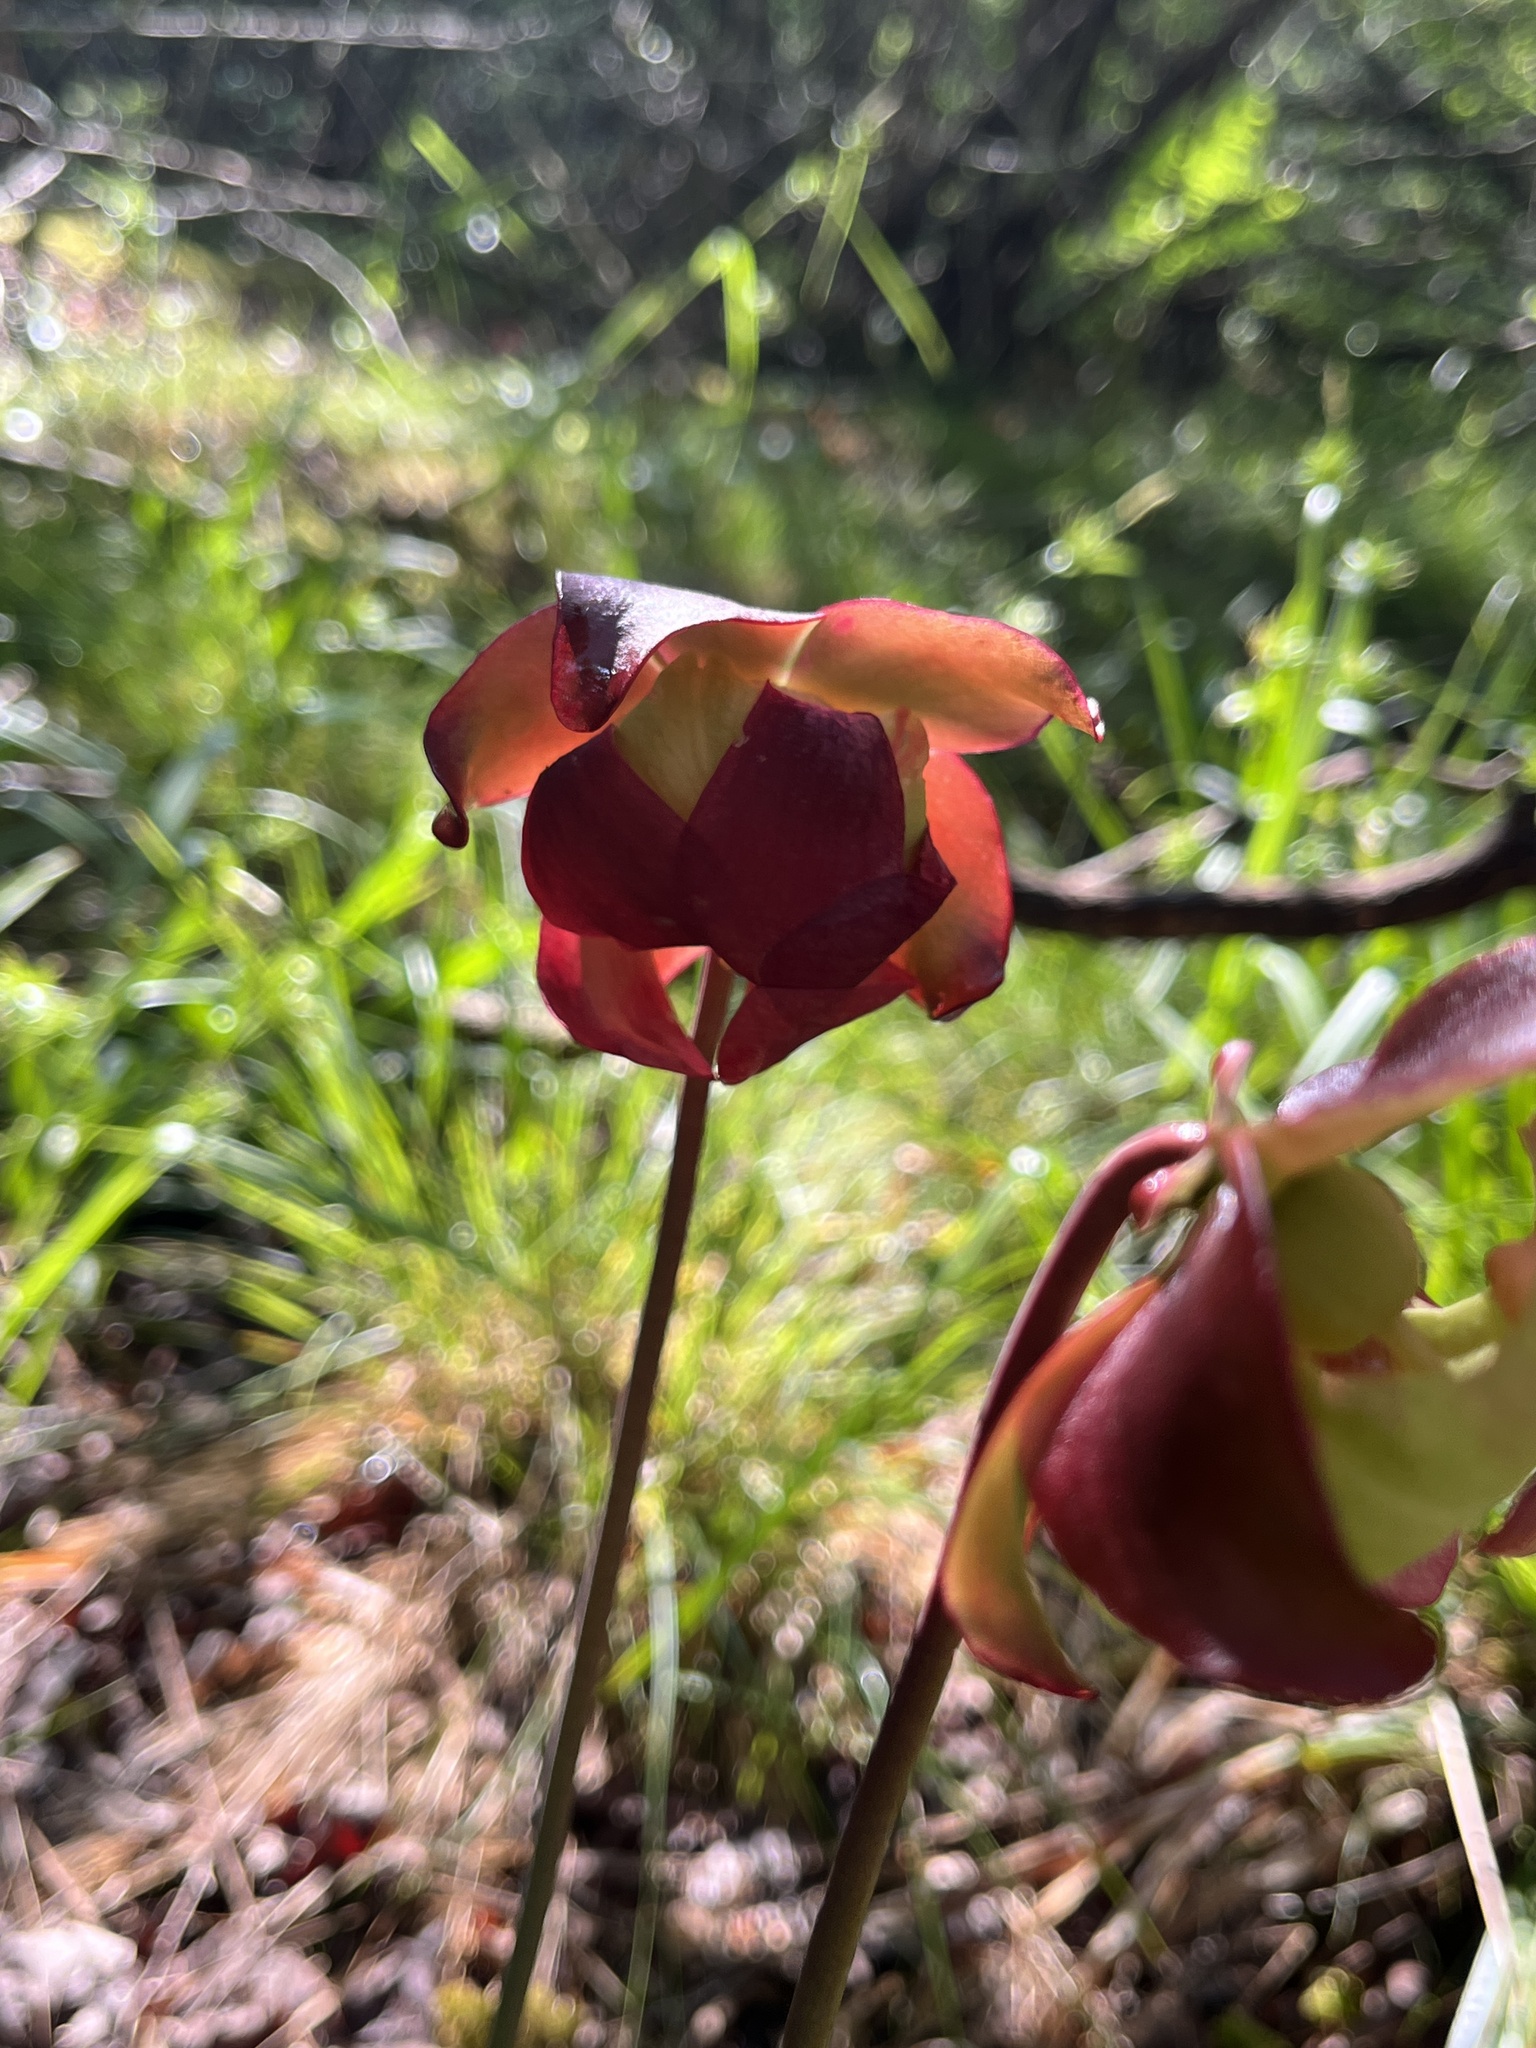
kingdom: Plantae
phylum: Tracheophyta
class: Magnoliopsida
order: Ericales
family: Sarraceniaceae
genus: Sarracenia
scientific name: Sarracenia purpurea
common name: Pitcherplant
